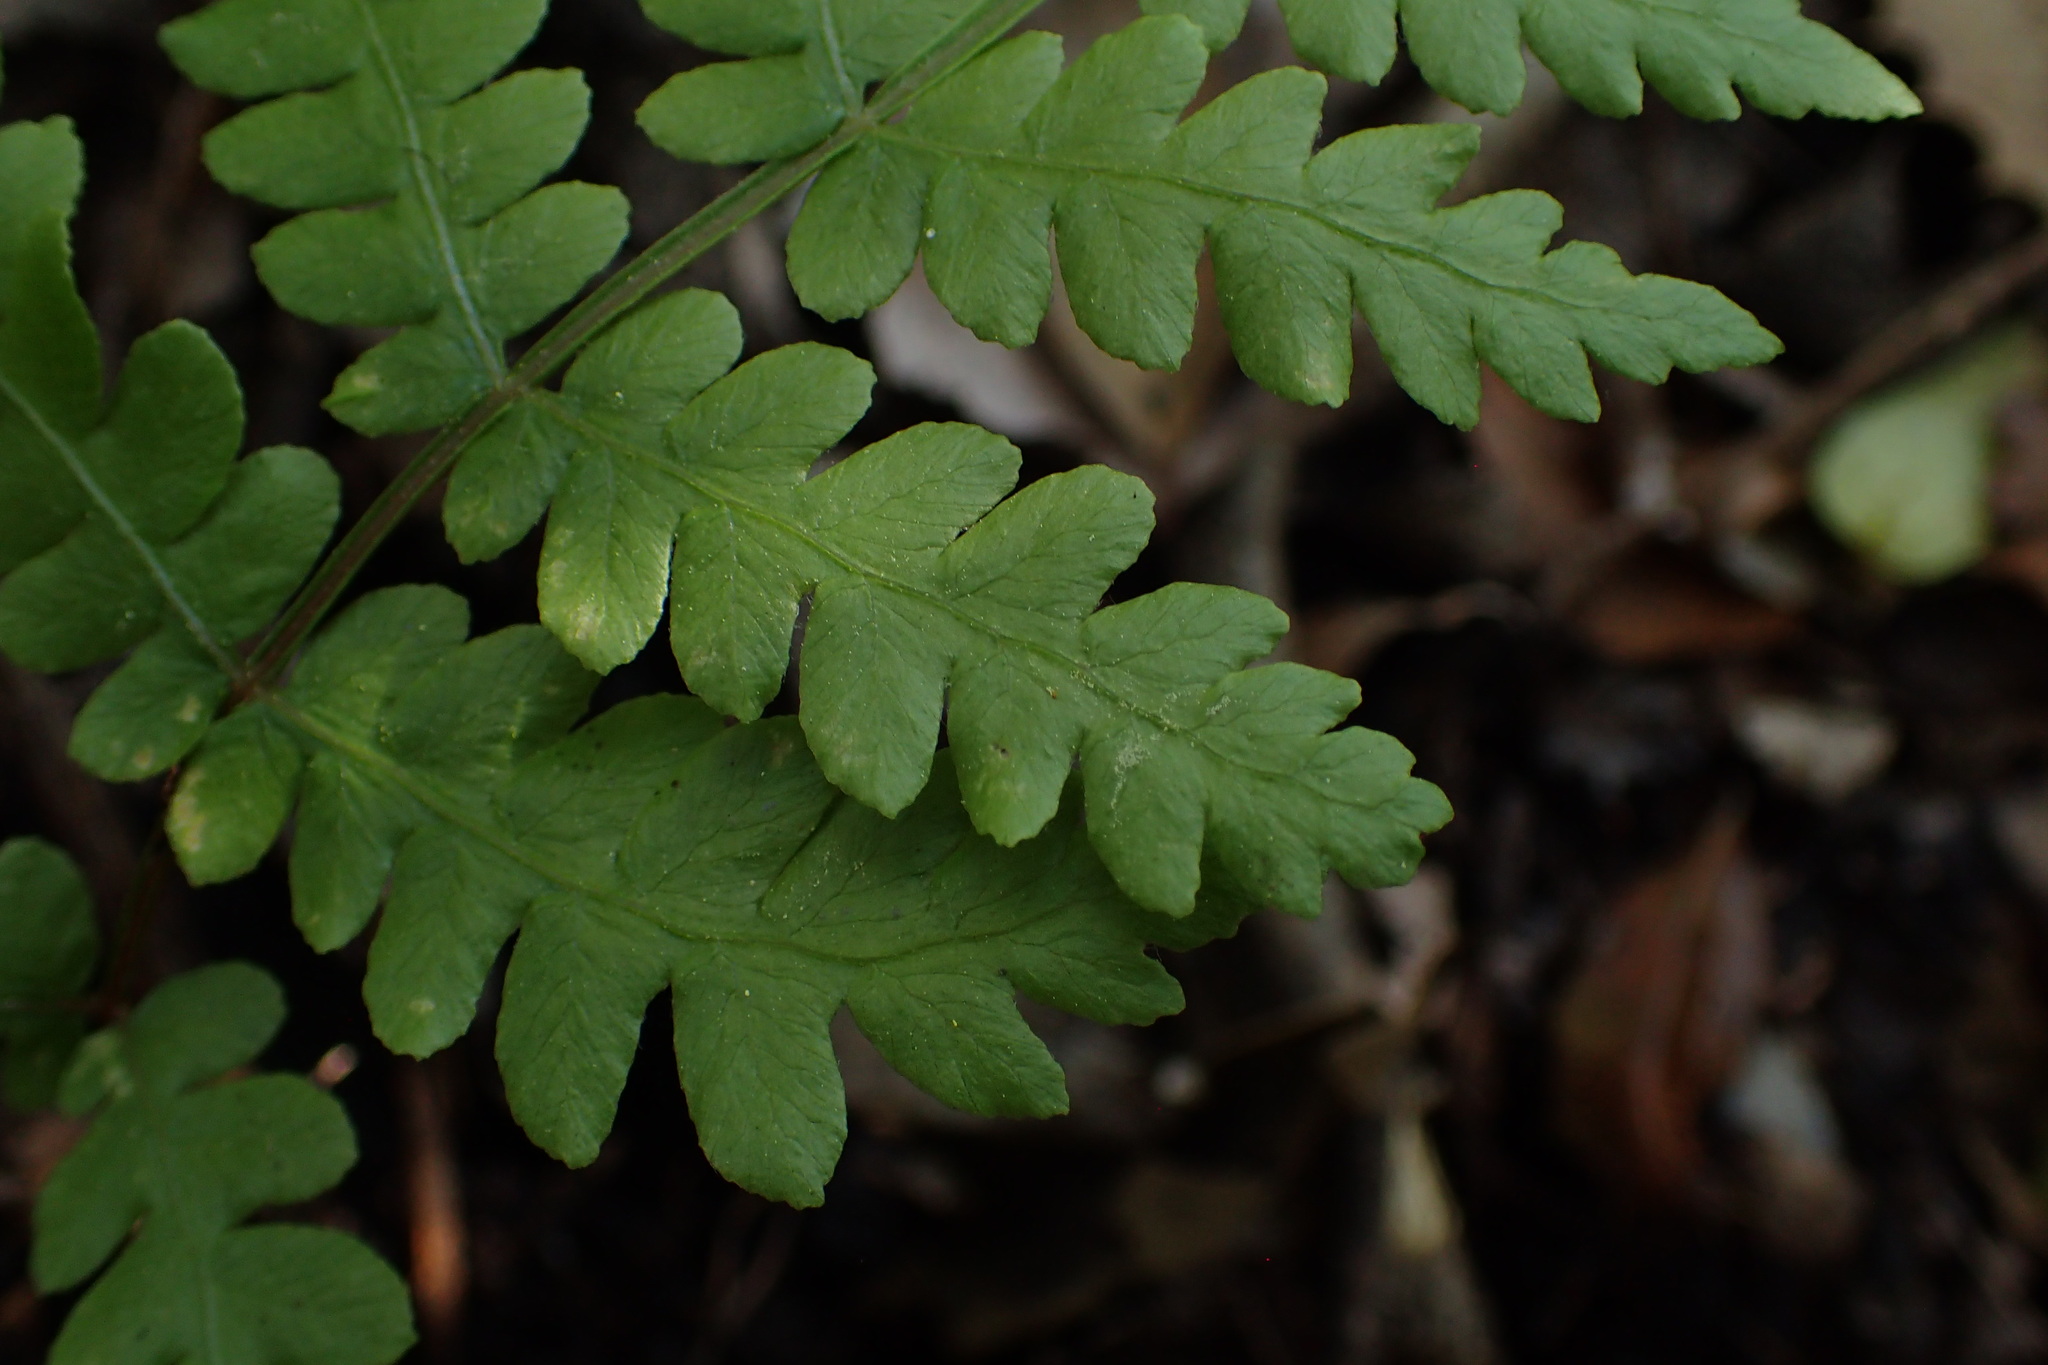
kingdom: Plantae
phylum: Tracheophyta
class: Polypodiopsida
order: Polypodiales
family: Blechnaceae
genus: Anchistea
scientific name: Anchistea virginica
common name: Virginia chain fern
